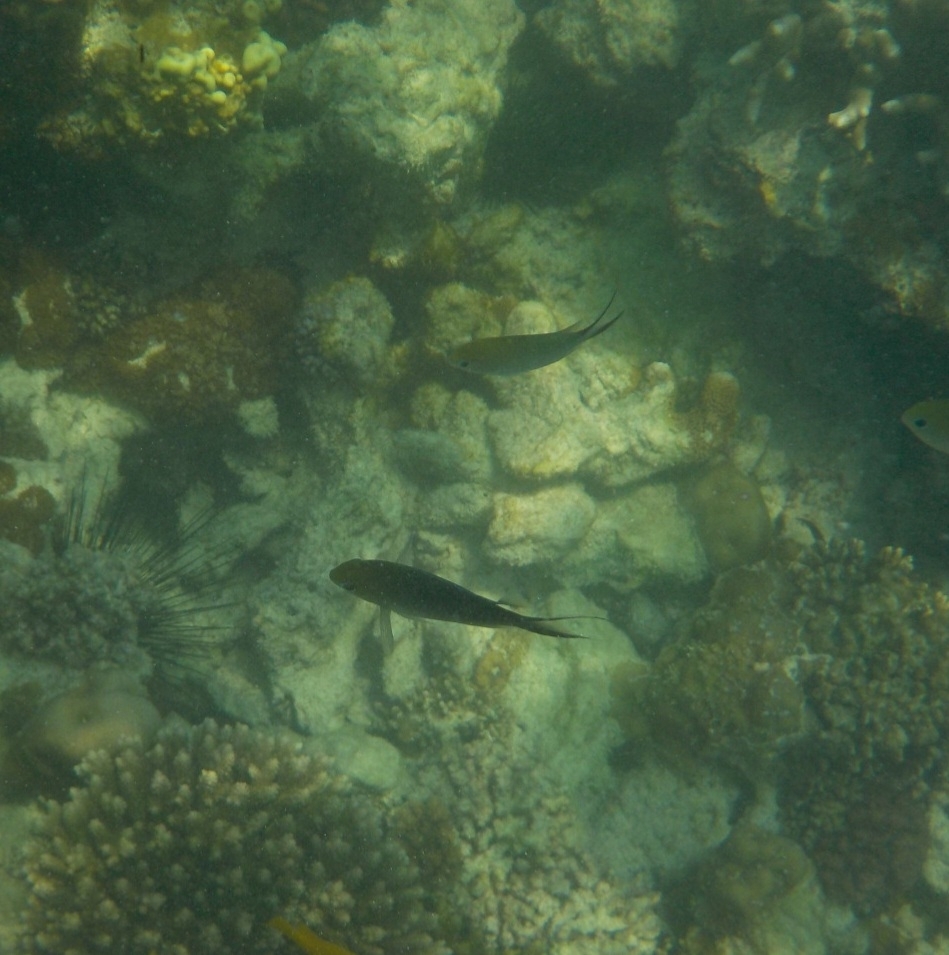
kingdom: Animalia
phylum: Chordata
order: Perciformes
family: Pomacentridae
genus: Chromis
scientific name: Chromis ternatensis
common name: Ternate chromis
